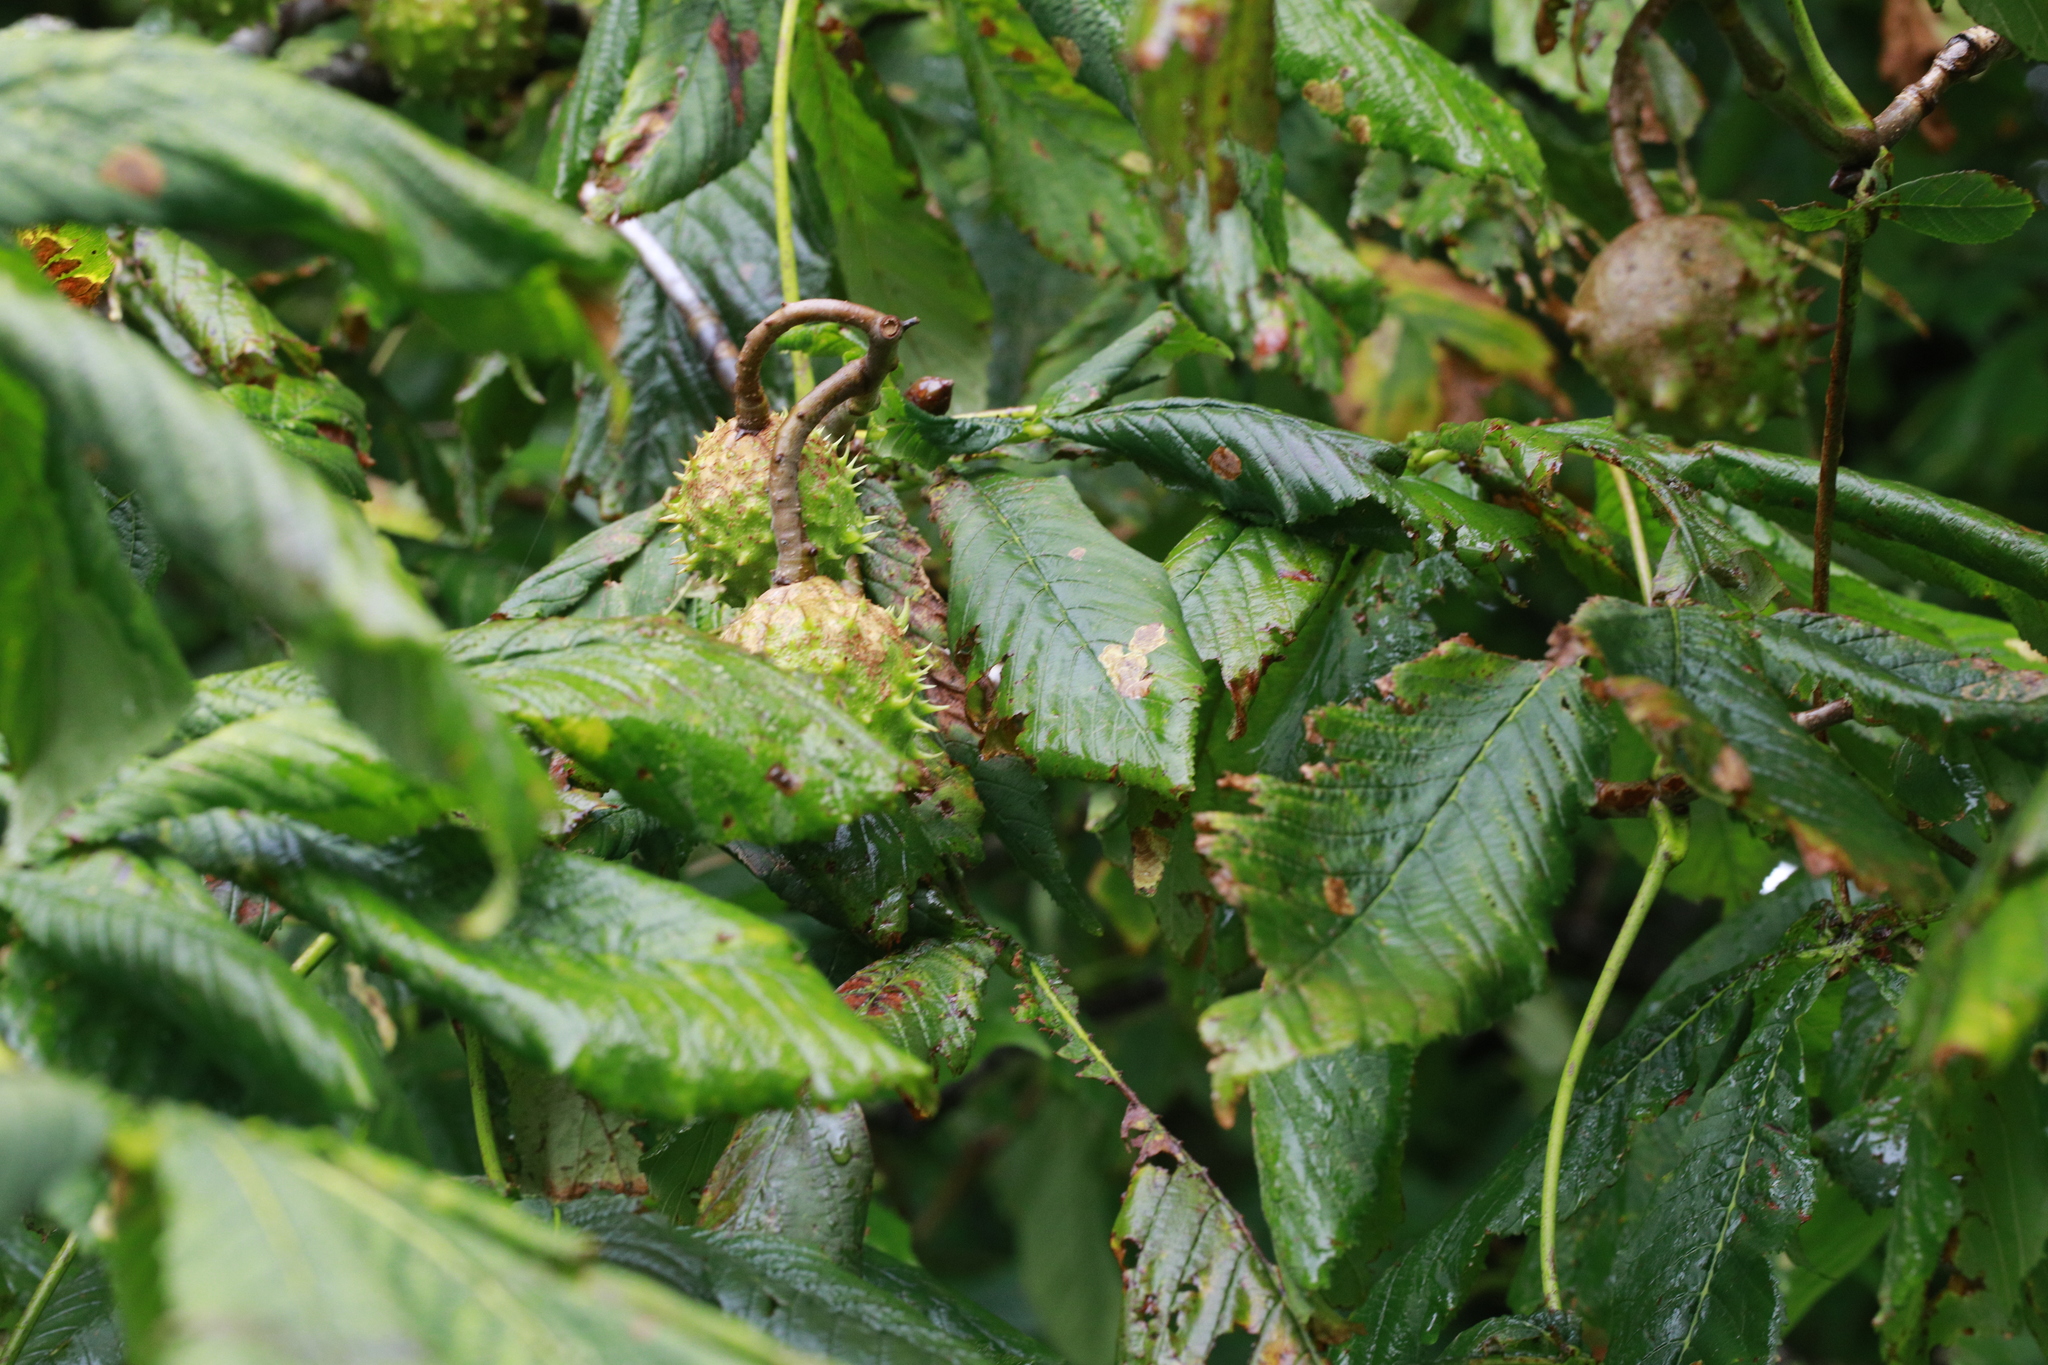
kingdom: Plantae
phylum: Tracheophyta
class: Magnoliopsida
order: Sapindales
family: Sapindaceae
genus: Aesculus
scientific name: Aesculus hippocastanum
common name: Horse-chestnut
